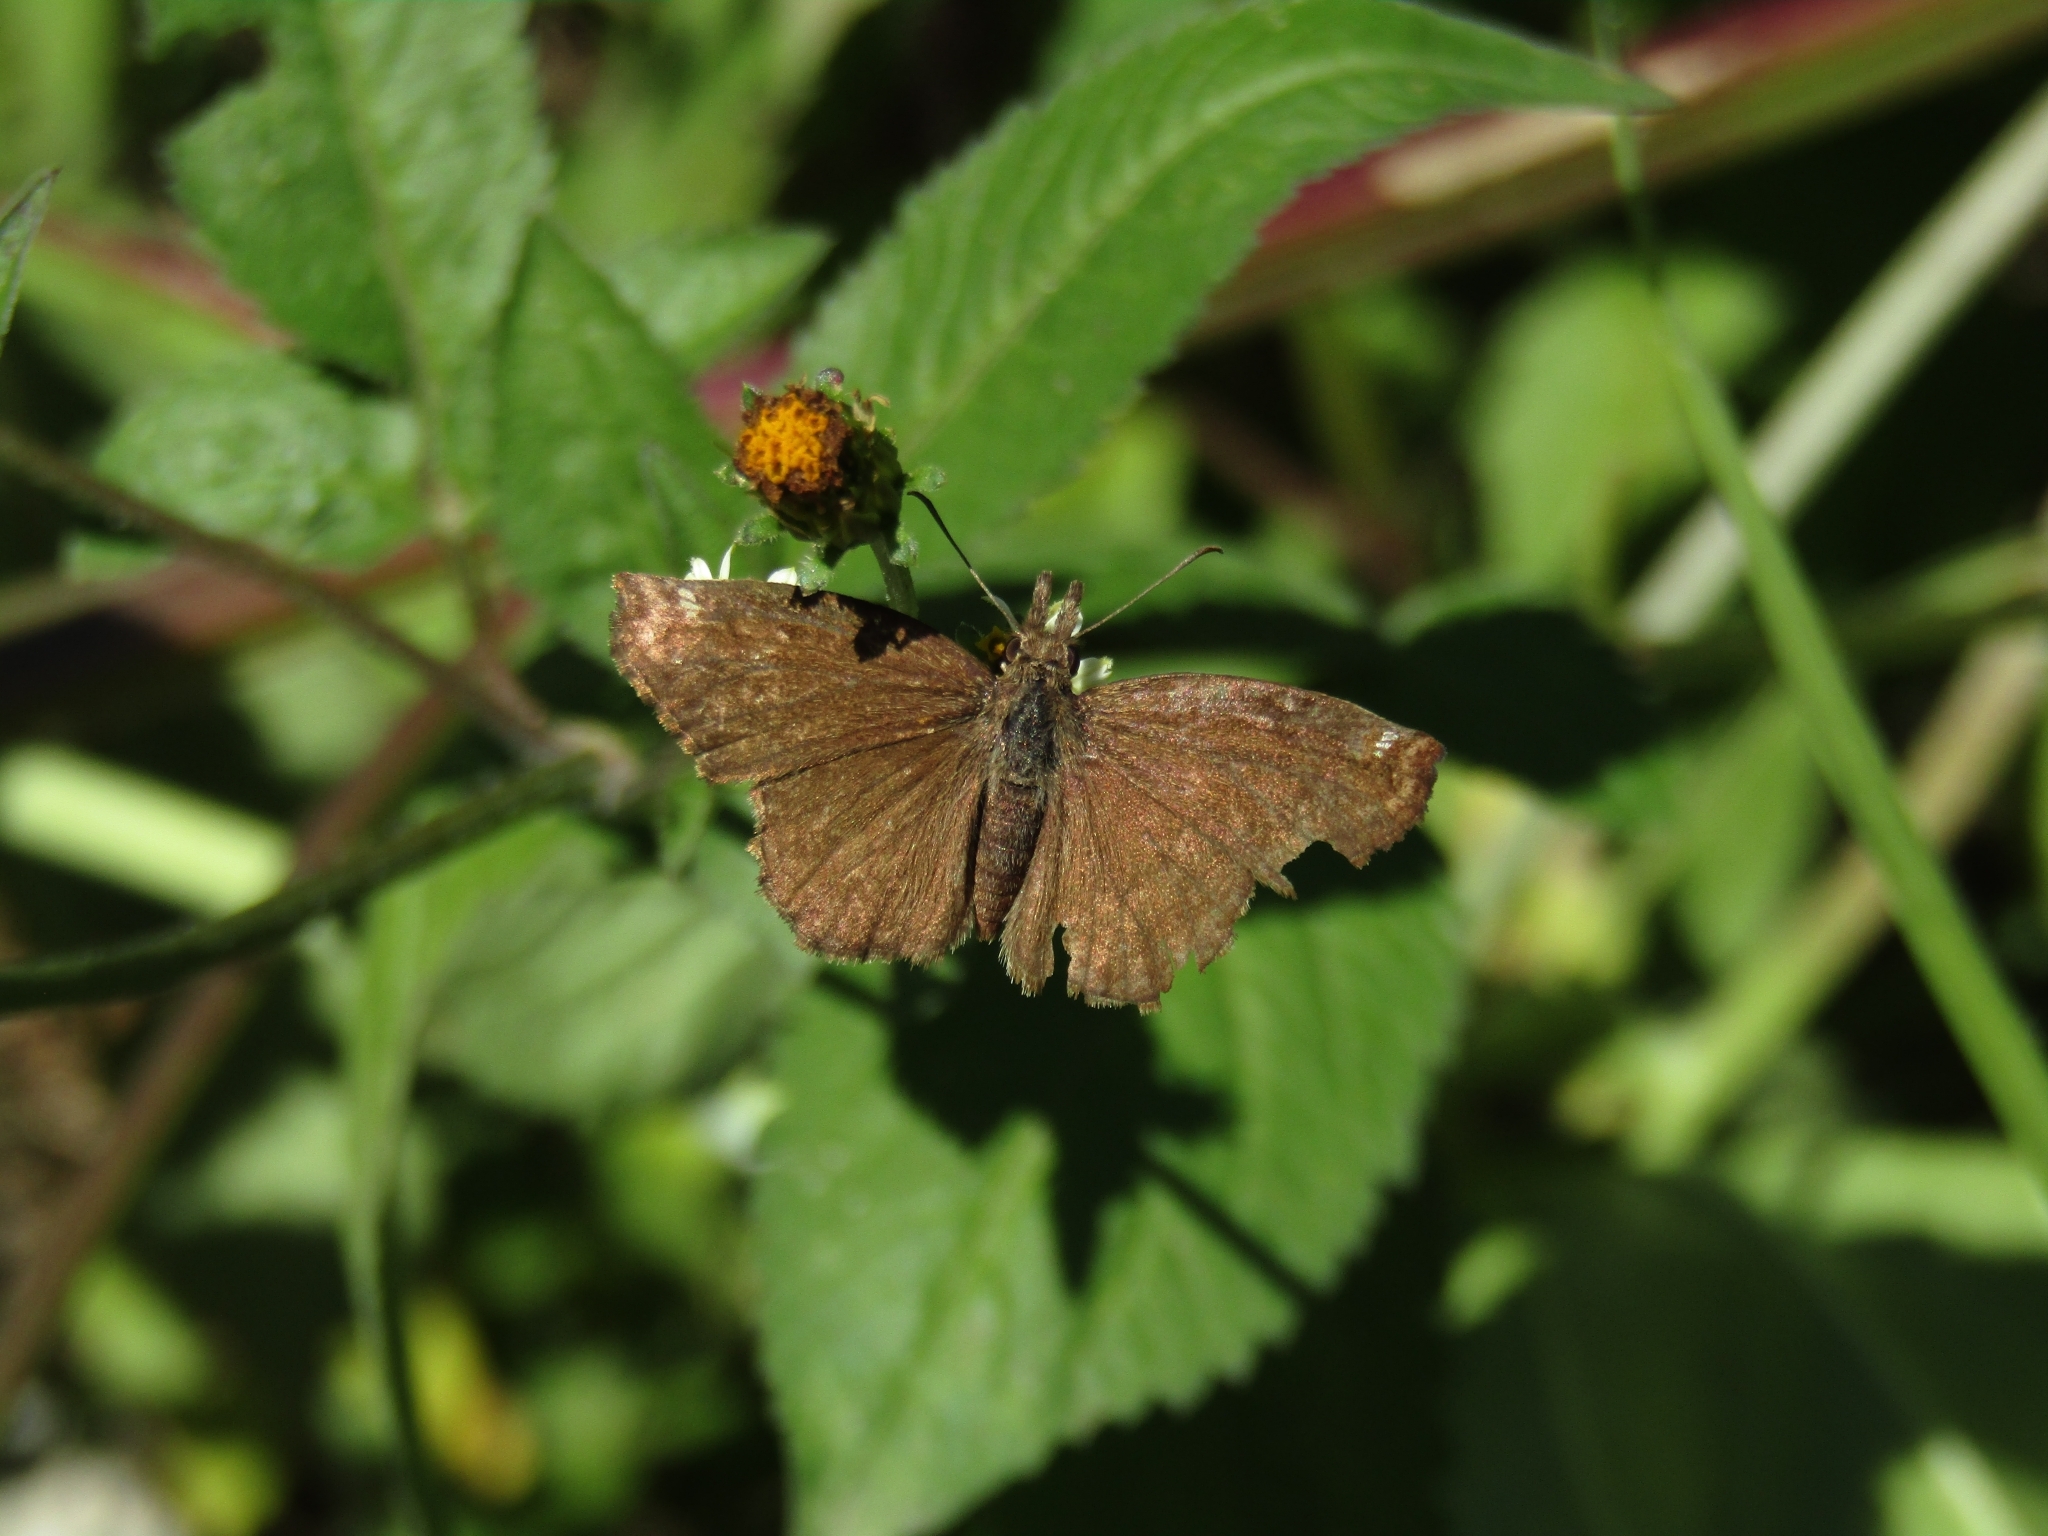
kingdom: Animalia
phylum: Arthropoda
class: Insecta
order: Lepidoptera
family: Hesperiidae
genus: Anisochoria
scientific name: Anisochoria sublimbata
